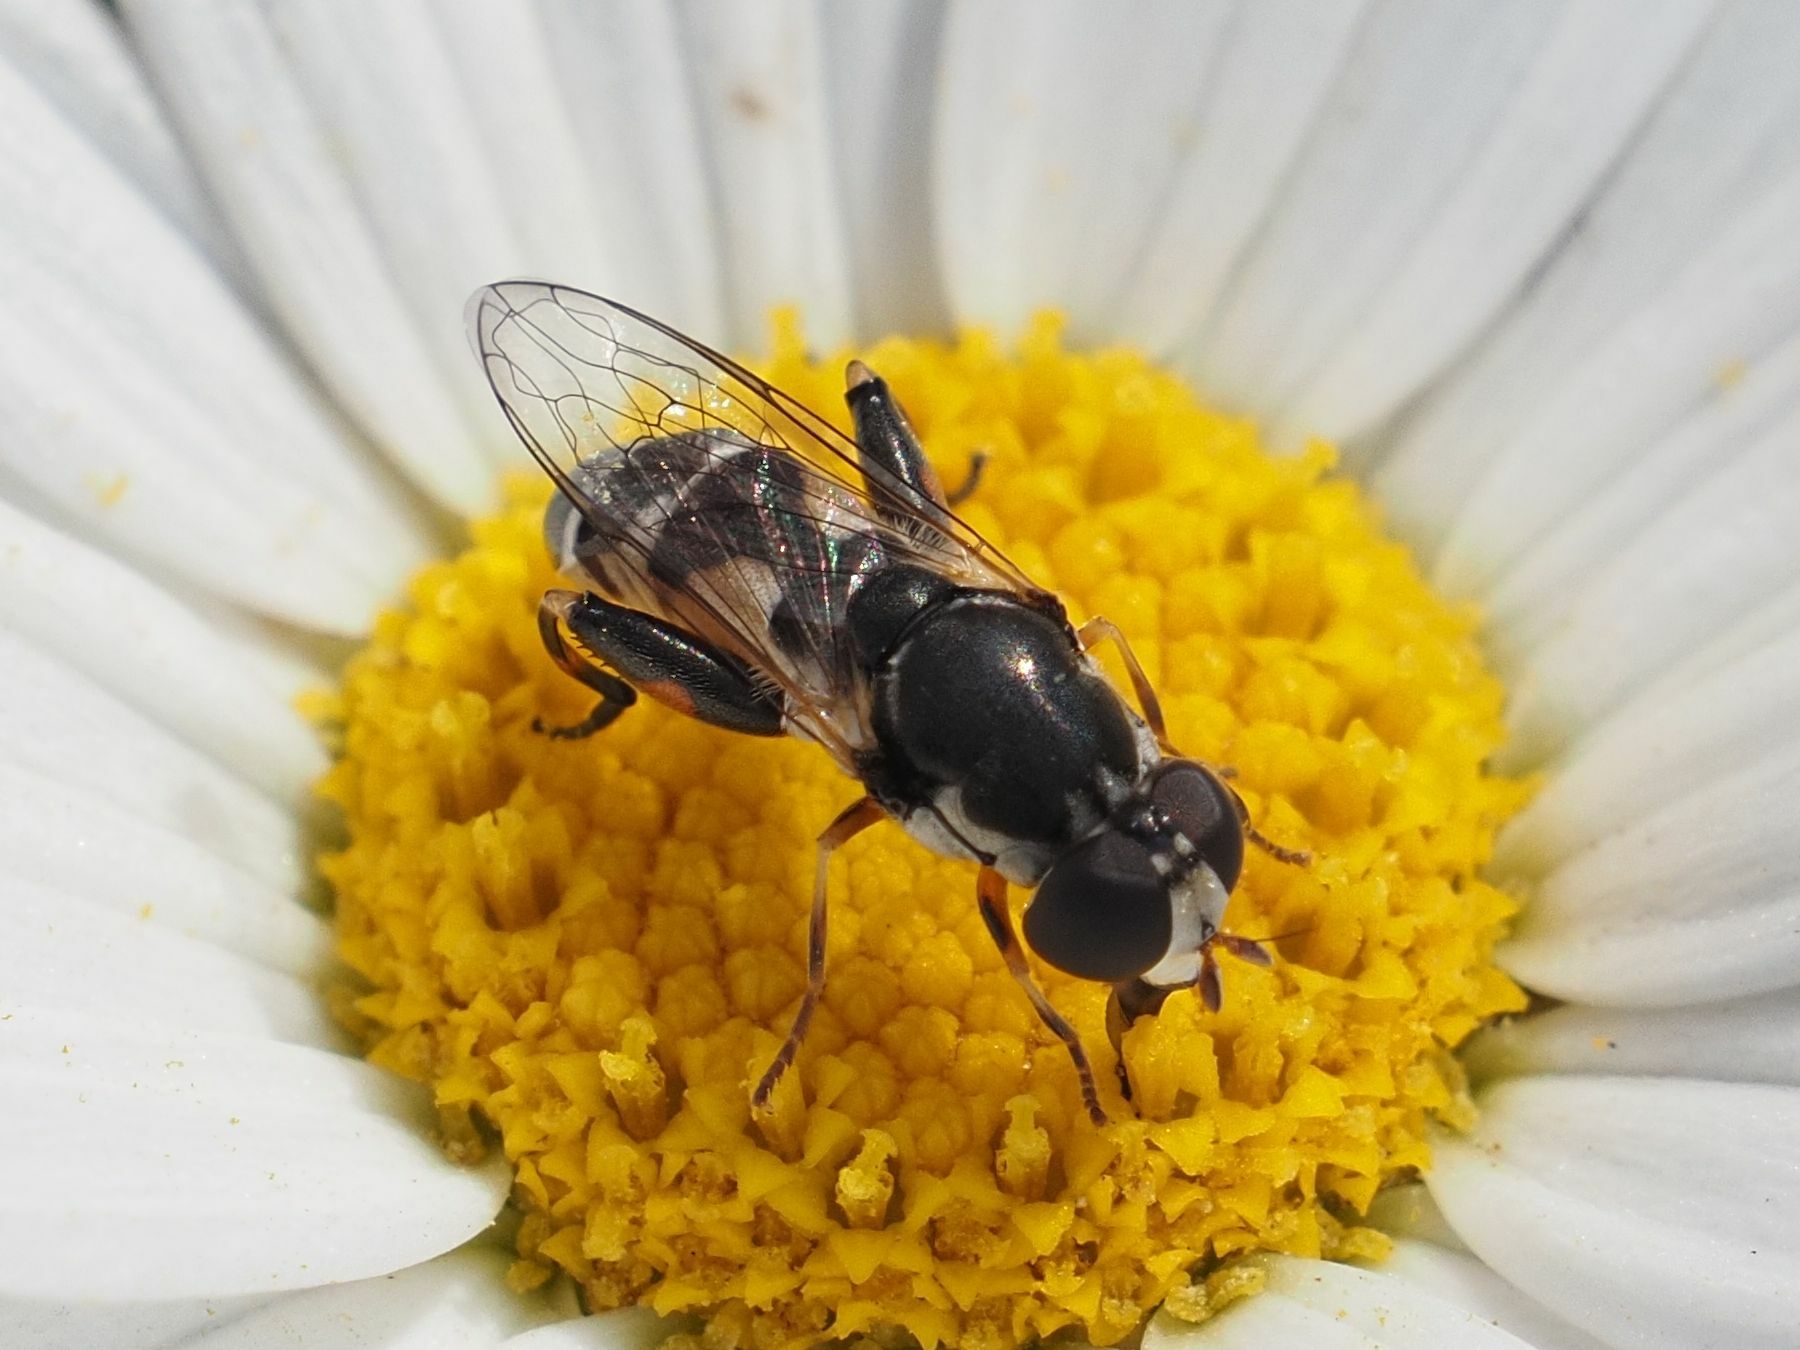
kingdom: Animalia
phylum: Arthropoda
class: Insecta
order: Diptera
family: Syrphidae
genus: Syritta
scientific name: Syritta pipiens
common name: Hover fly
